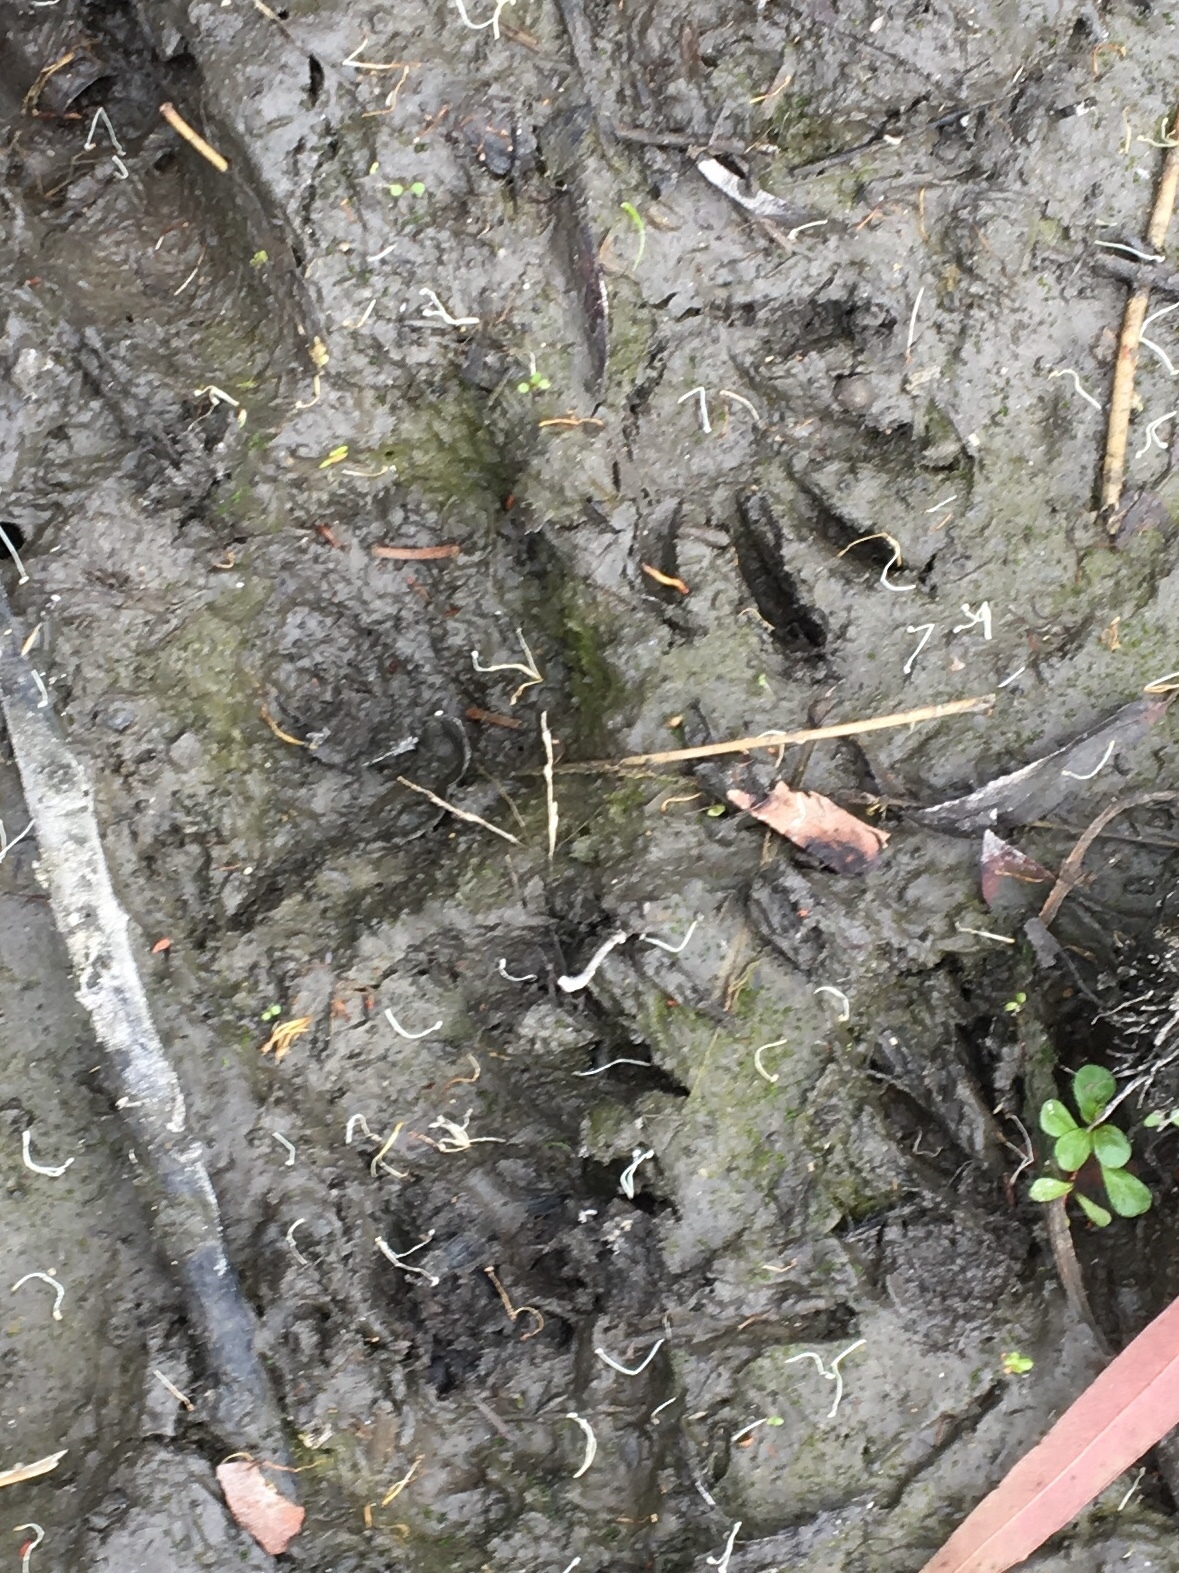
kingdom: Animalia
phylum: Chordata
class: Mammalia
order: Carnivora
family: Procyonidae
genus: Procyon
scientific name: Procyon lotor
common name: Raccoon
